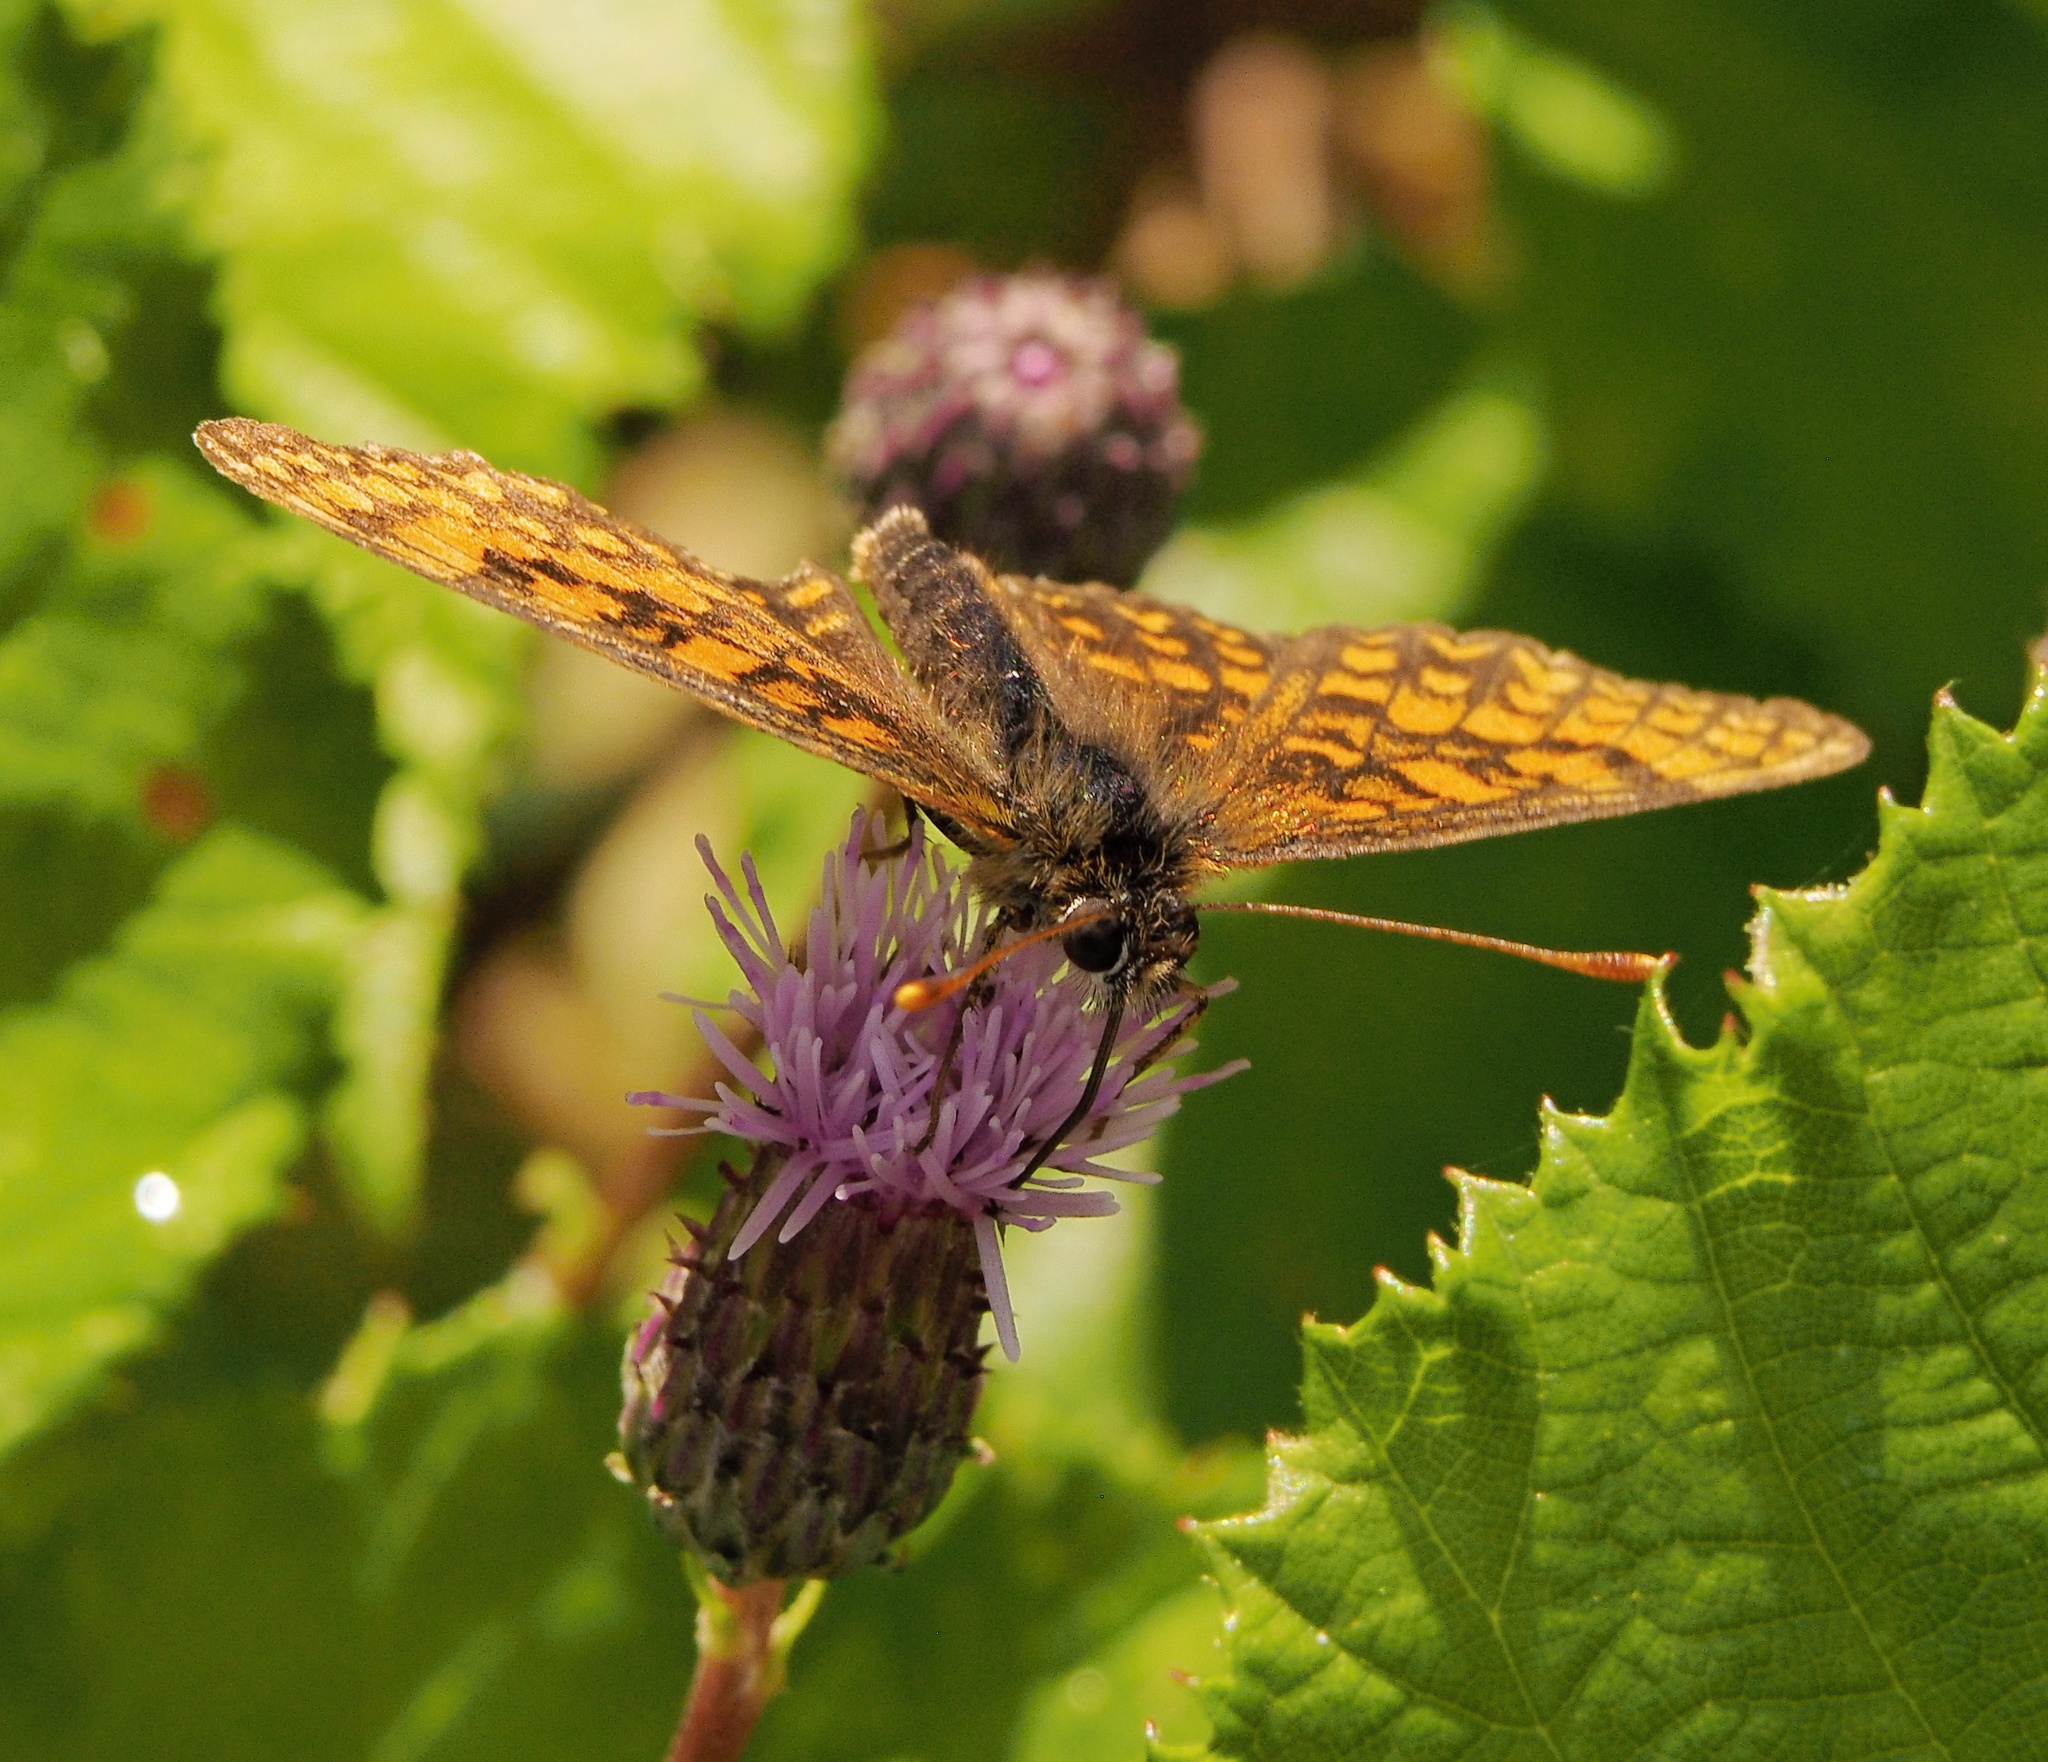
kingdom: Animalia
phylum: Arthropoda
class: Insecta
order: Lepidoptera
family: Nymphalidae
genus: Melitaea
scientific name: Melitaea athalia
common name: Heath fritillary
